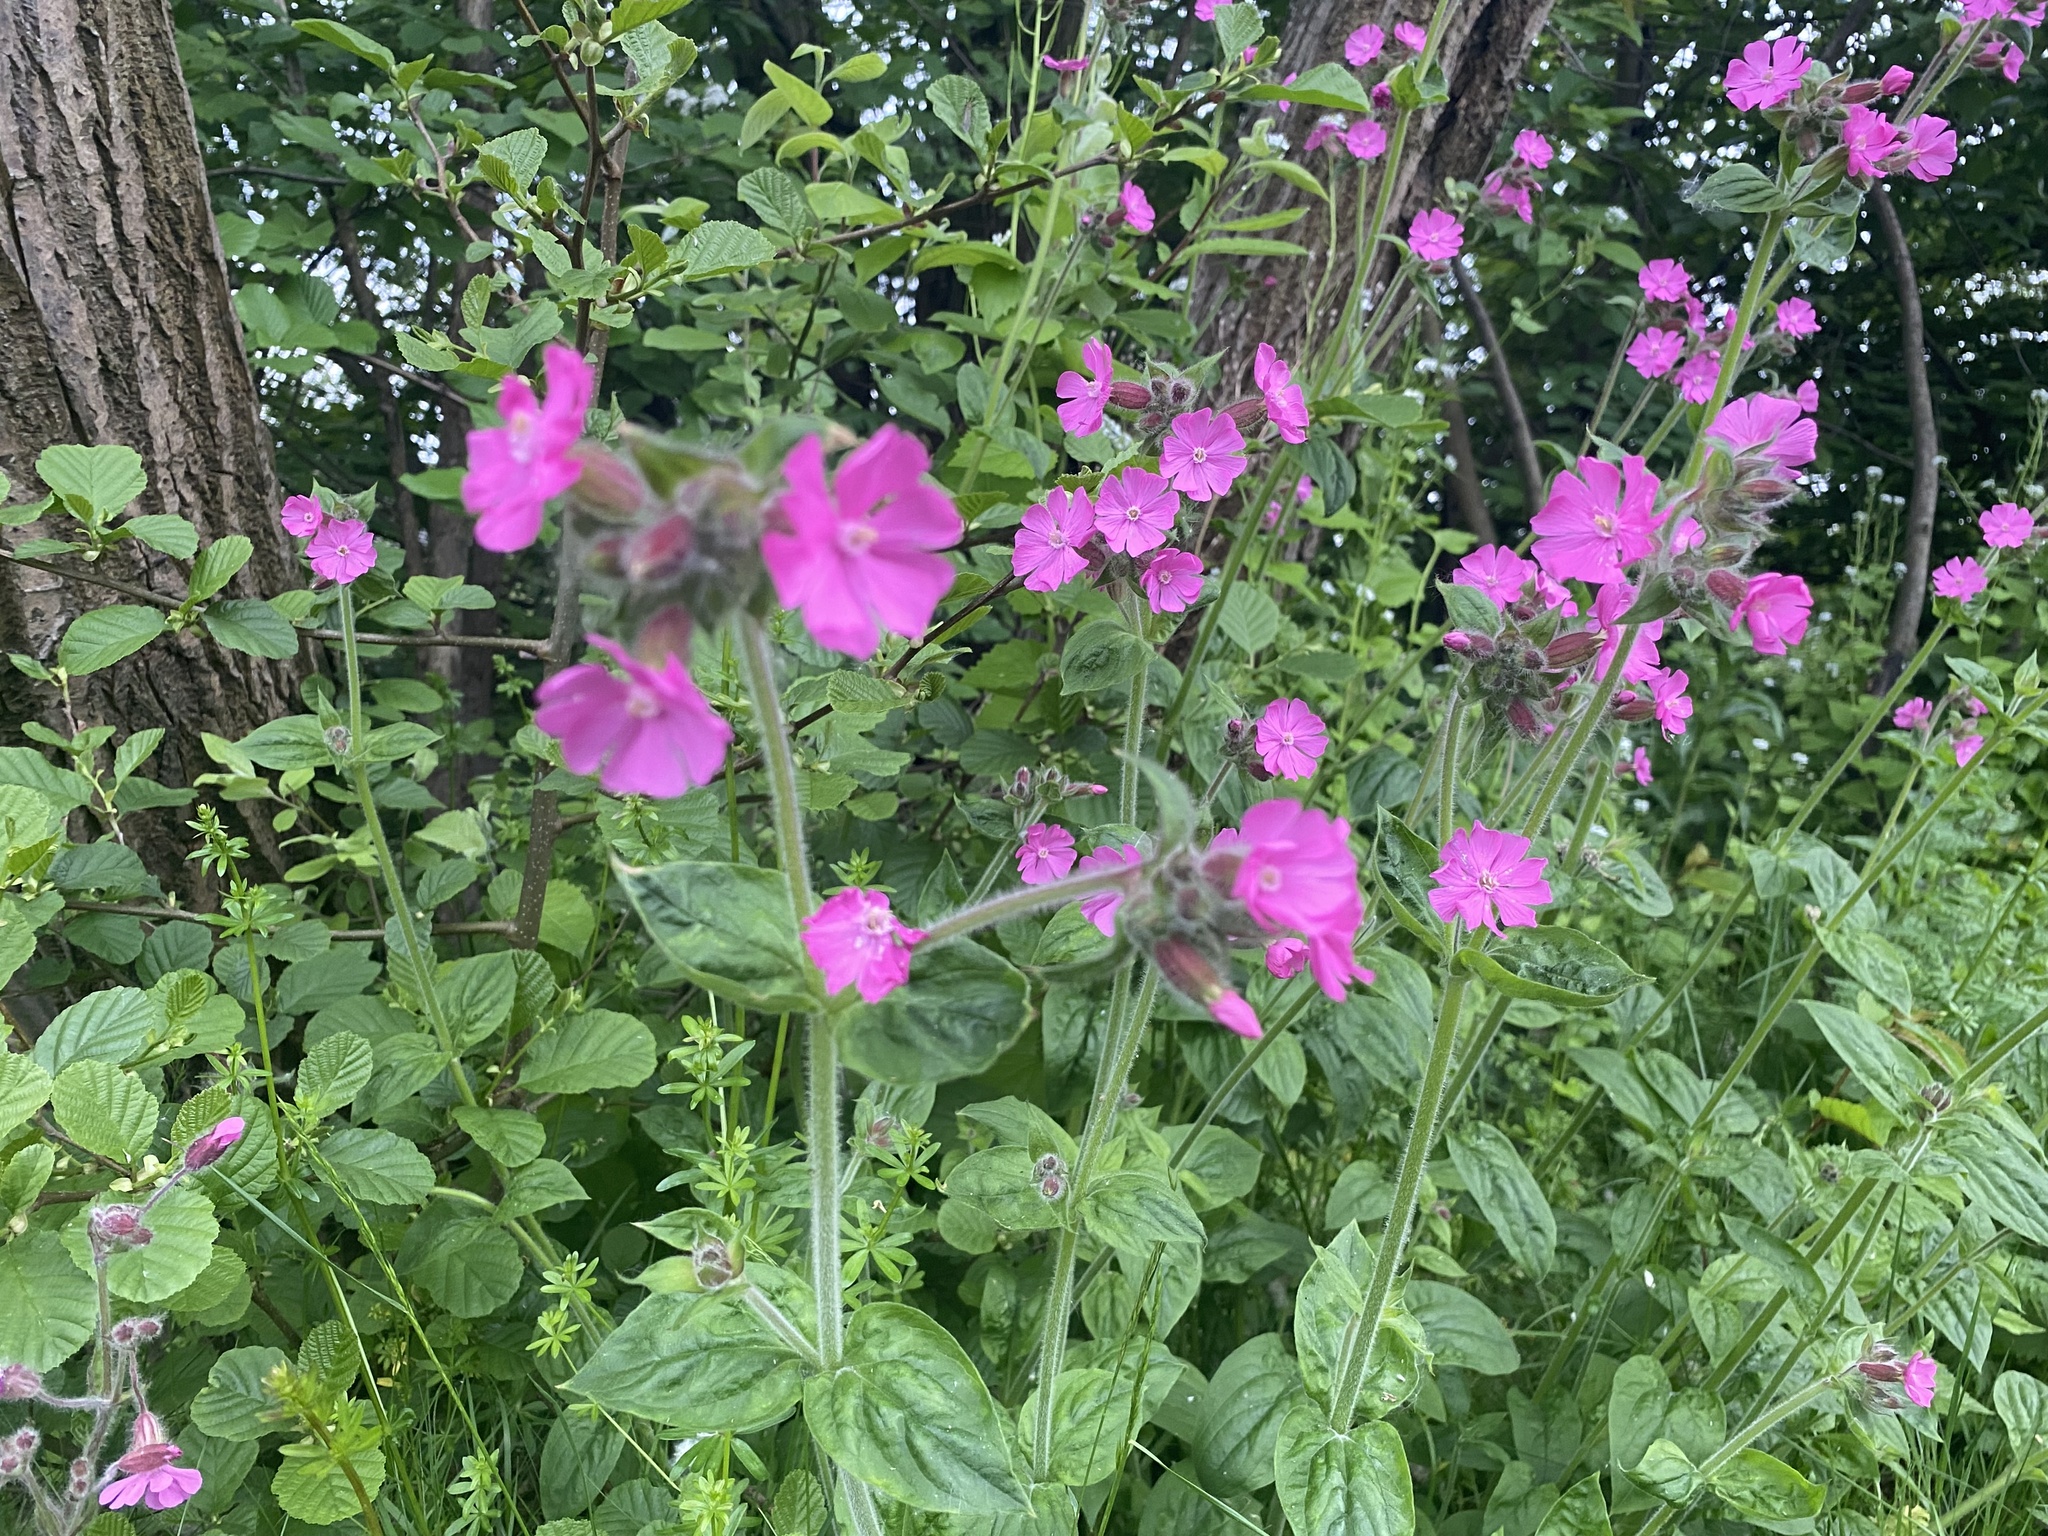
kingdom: Plantae
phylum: Tracheophyta
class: Magnoliopsida
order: Caryophyllales
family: Caryophyllaceae
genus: Silene
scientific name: Silene dioica
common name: Red campion
